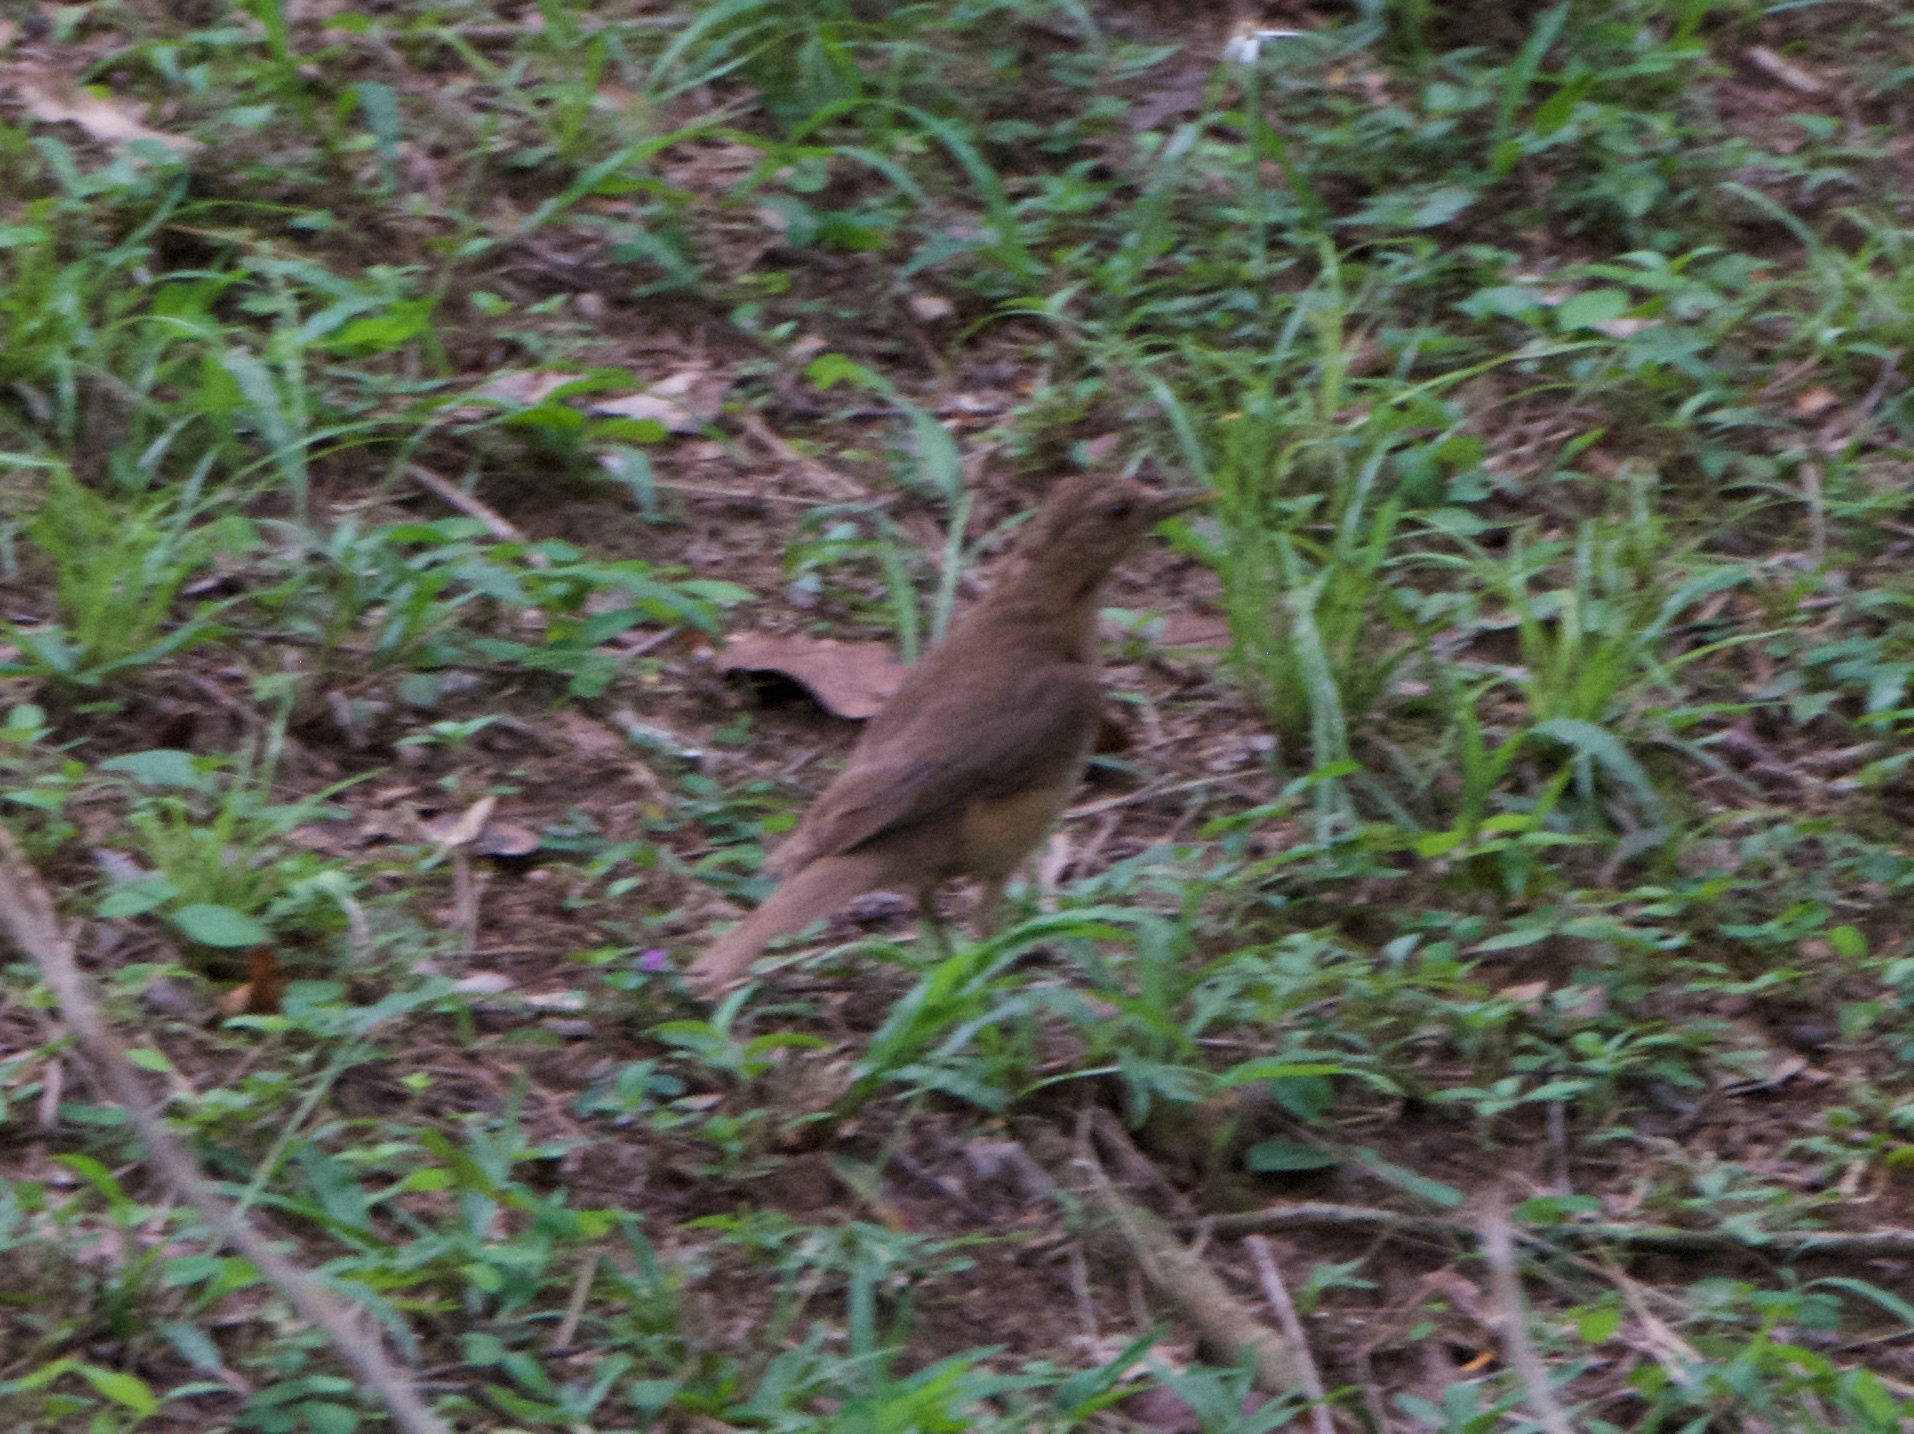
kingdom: Animalia
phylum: Chordata
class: Aves
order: Passeriformes
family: Turdidae
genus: Turdus
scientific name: Turdus grayi
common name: Clay-colored thrush
